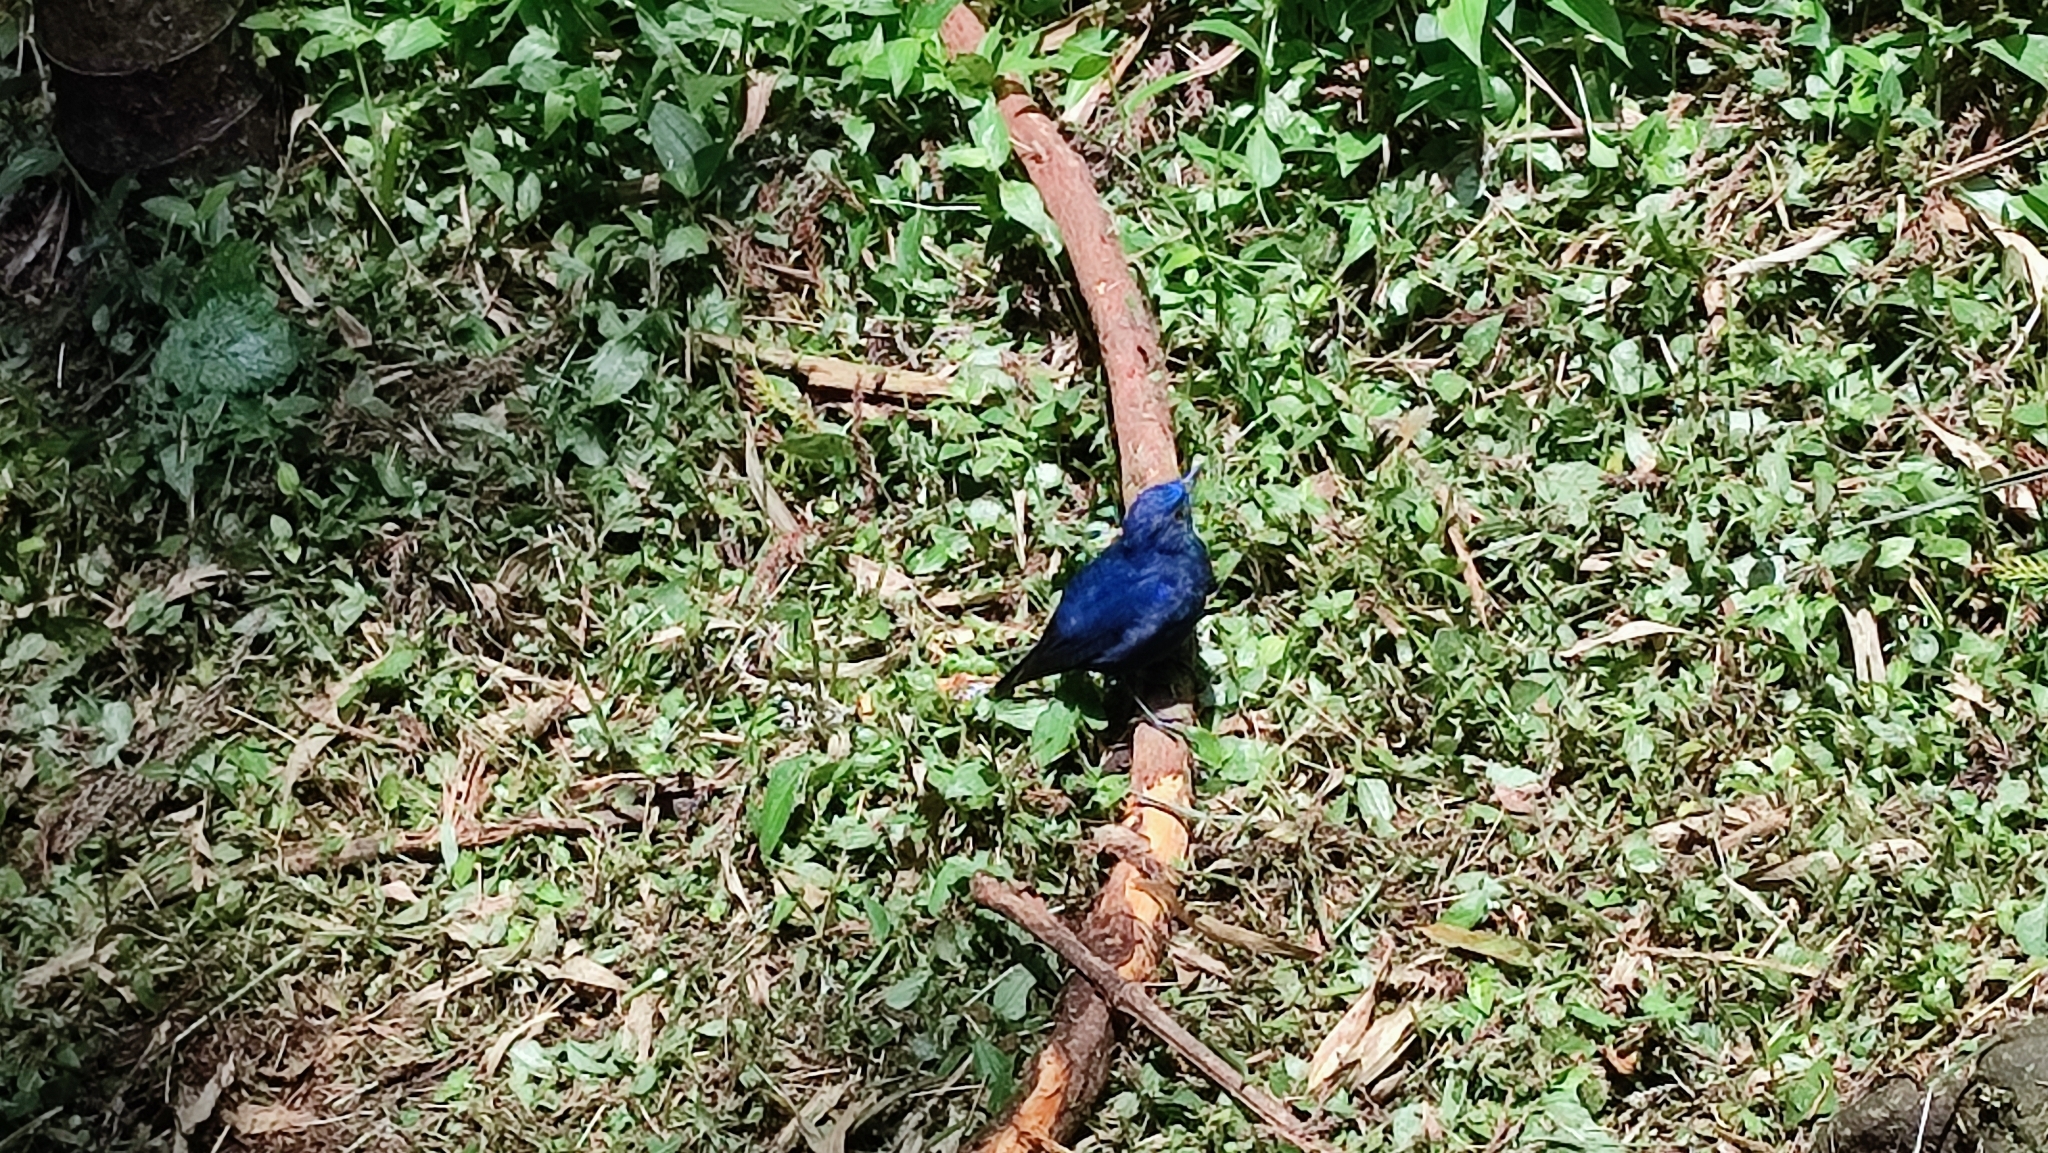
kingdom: Animalia
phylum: Chordata
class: Aves
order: Passeriformes
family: Muscicapidae
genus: Myiomela
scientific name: Myiomela leucura
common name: White-tailed robin
